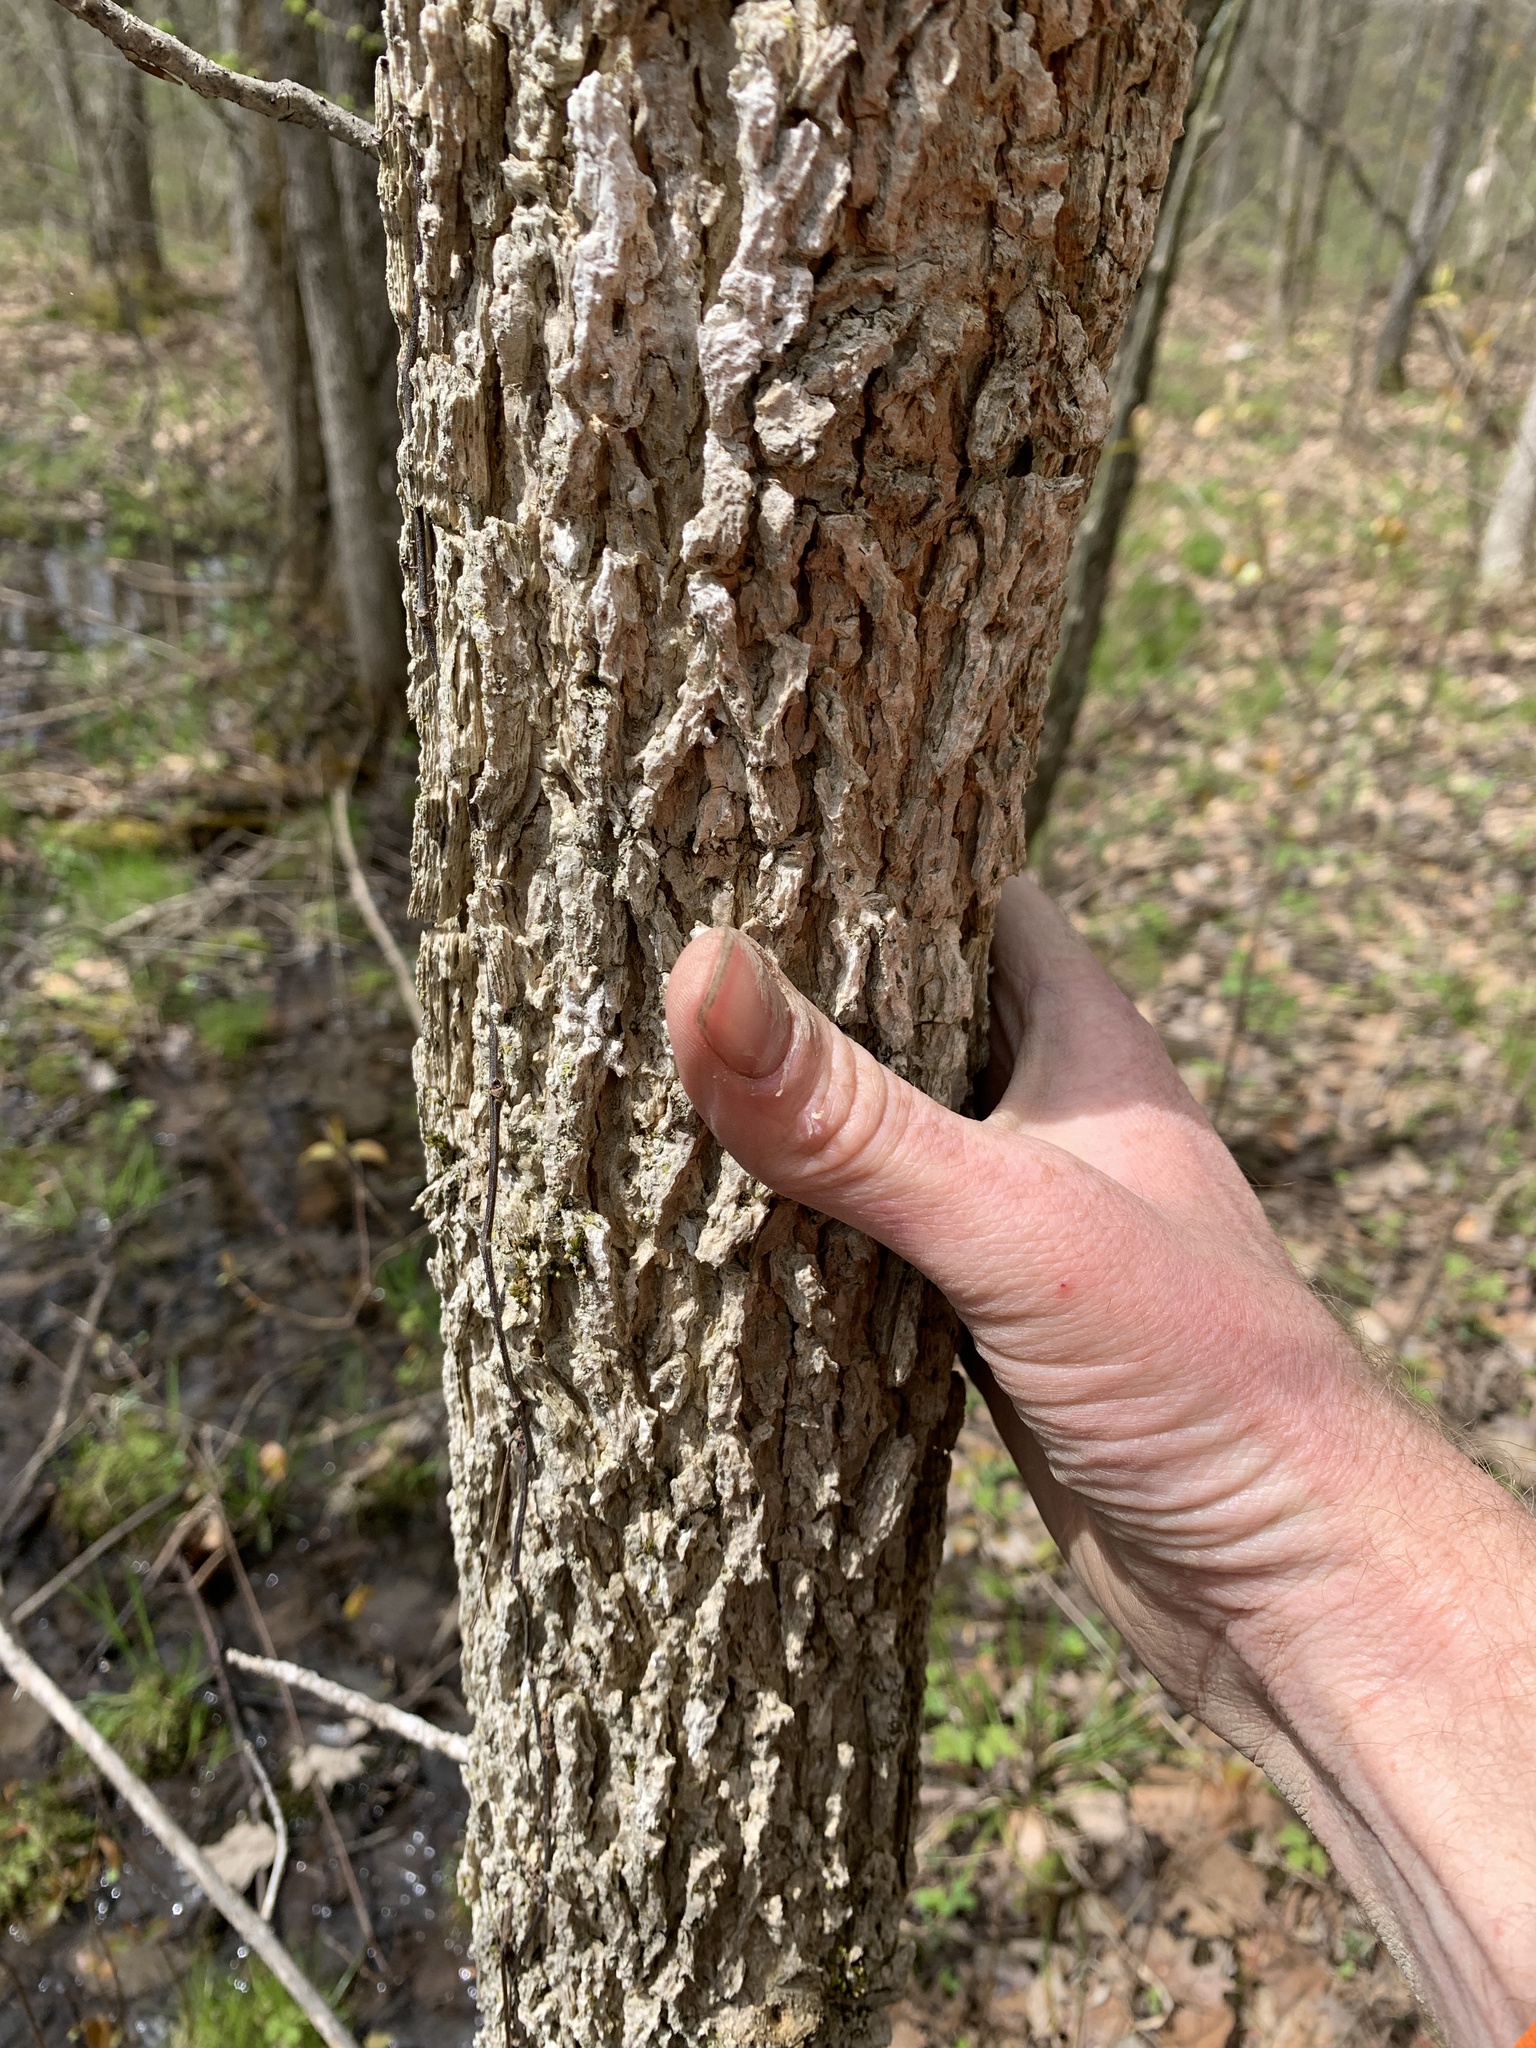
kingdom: Plantae
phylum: Tracheophyta
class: Magnoliopsida
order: Lamiales
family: Oleaceae
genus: Fraxinus
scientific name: Fraxinus nigra
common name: Black ash
